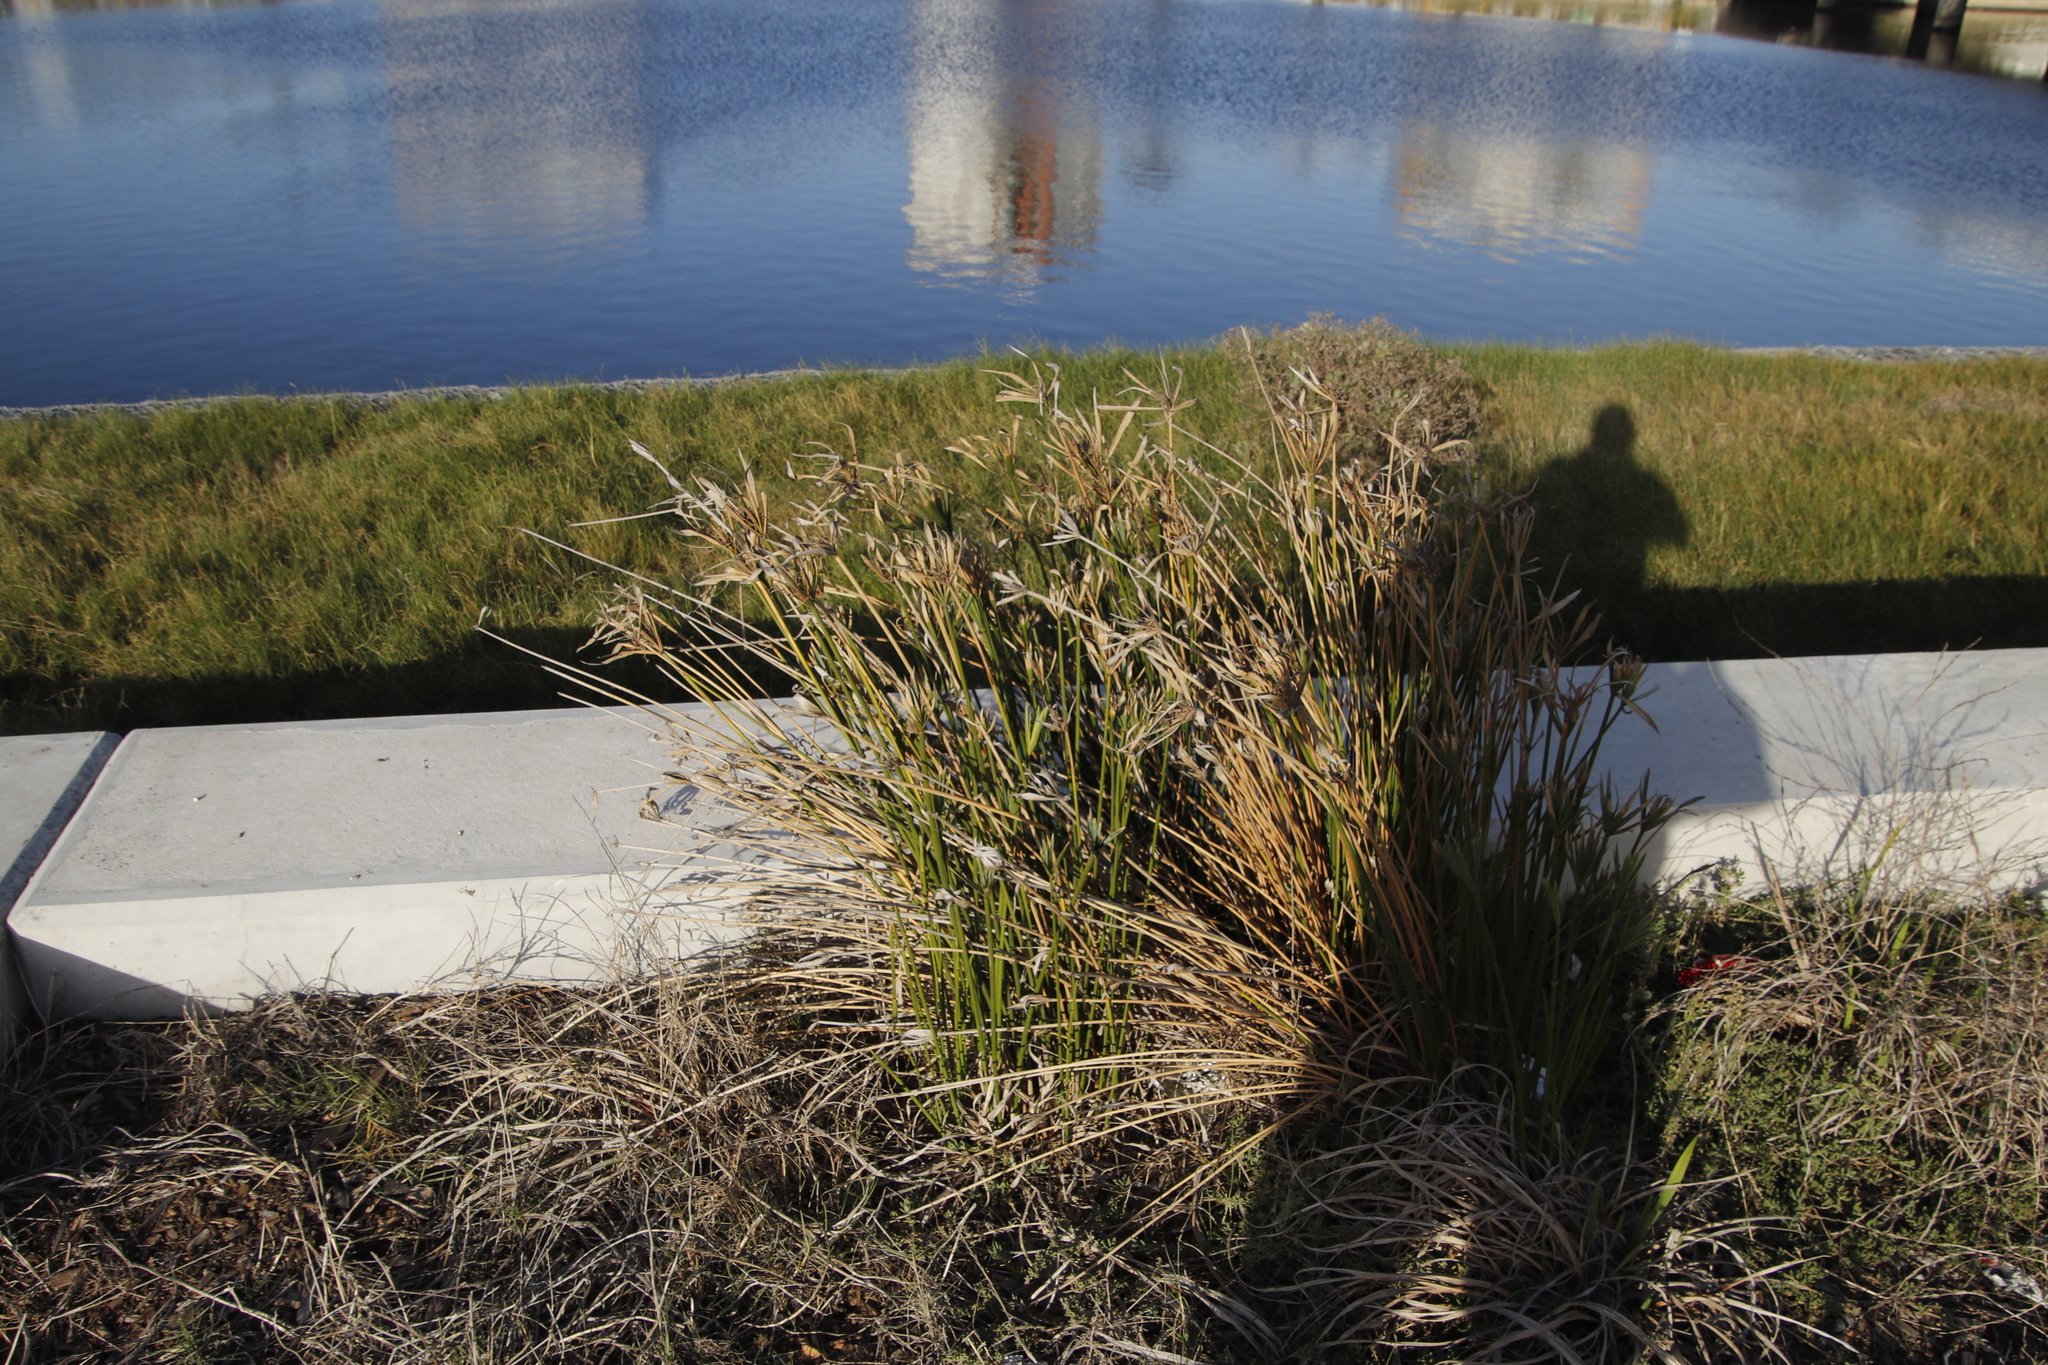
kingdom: Plantae
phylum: Tracheophyta
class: Liliopsida
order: Poales
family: Cyperaceae
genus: Cyperus
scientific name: Cyperus textilis
